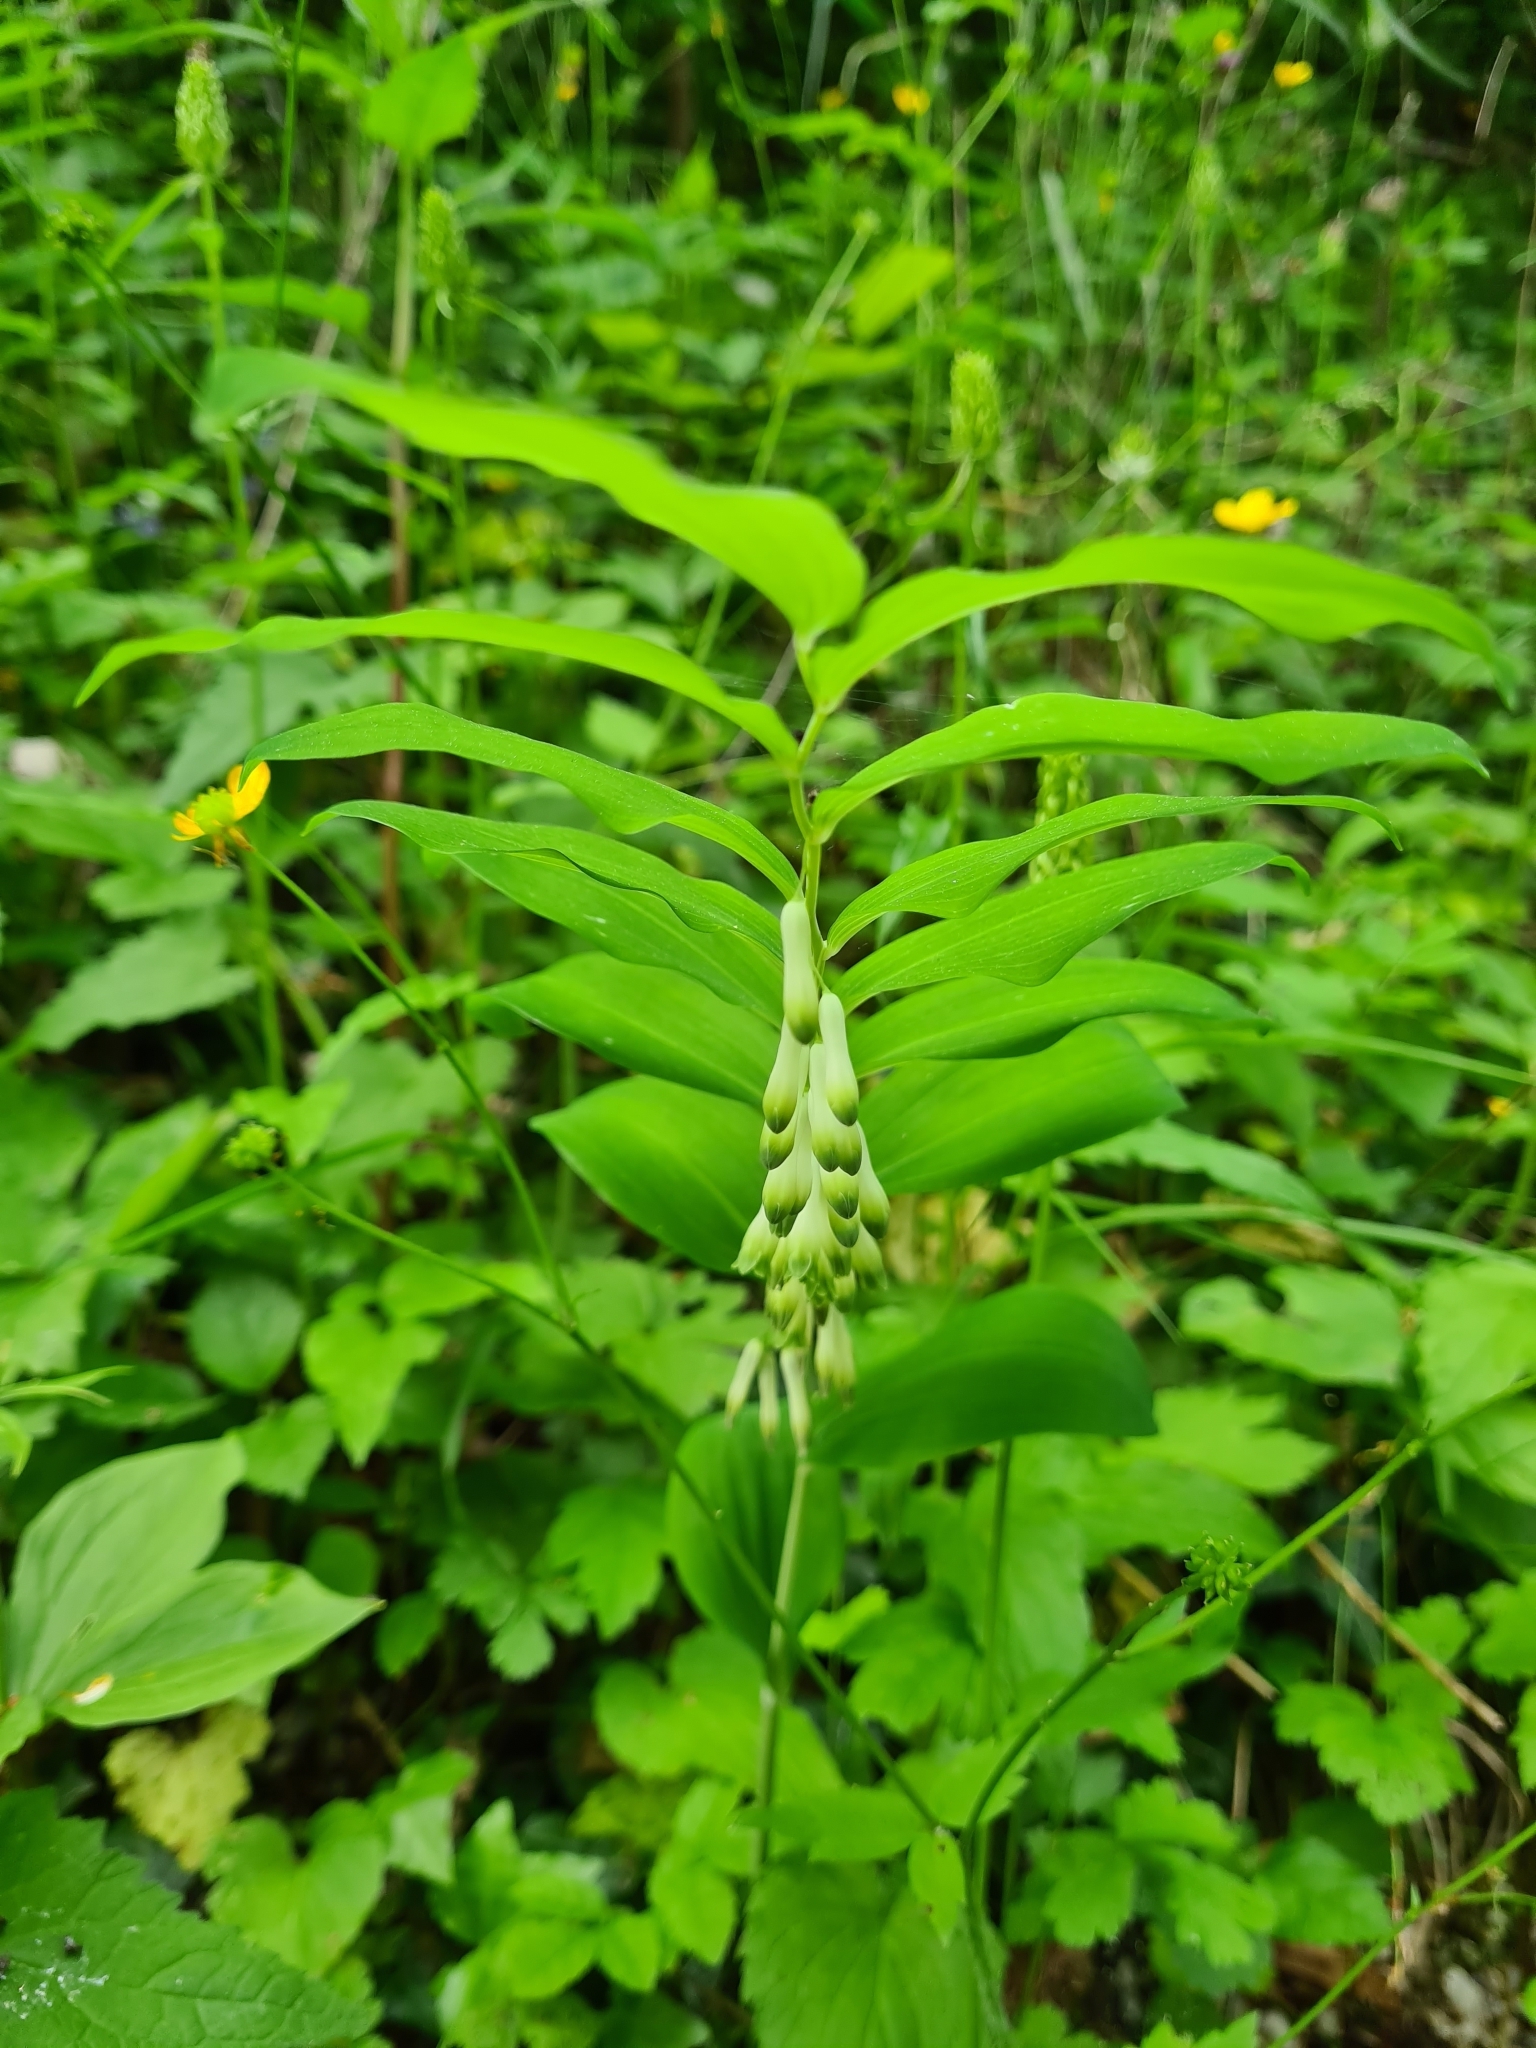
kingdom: Plantae
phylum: Tracheophyta
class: Liliopsida
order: Asparagales
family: Asparagaceae
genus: Polygonatum
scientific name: Polygonatum multiflorum
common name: Solomon's-seal
